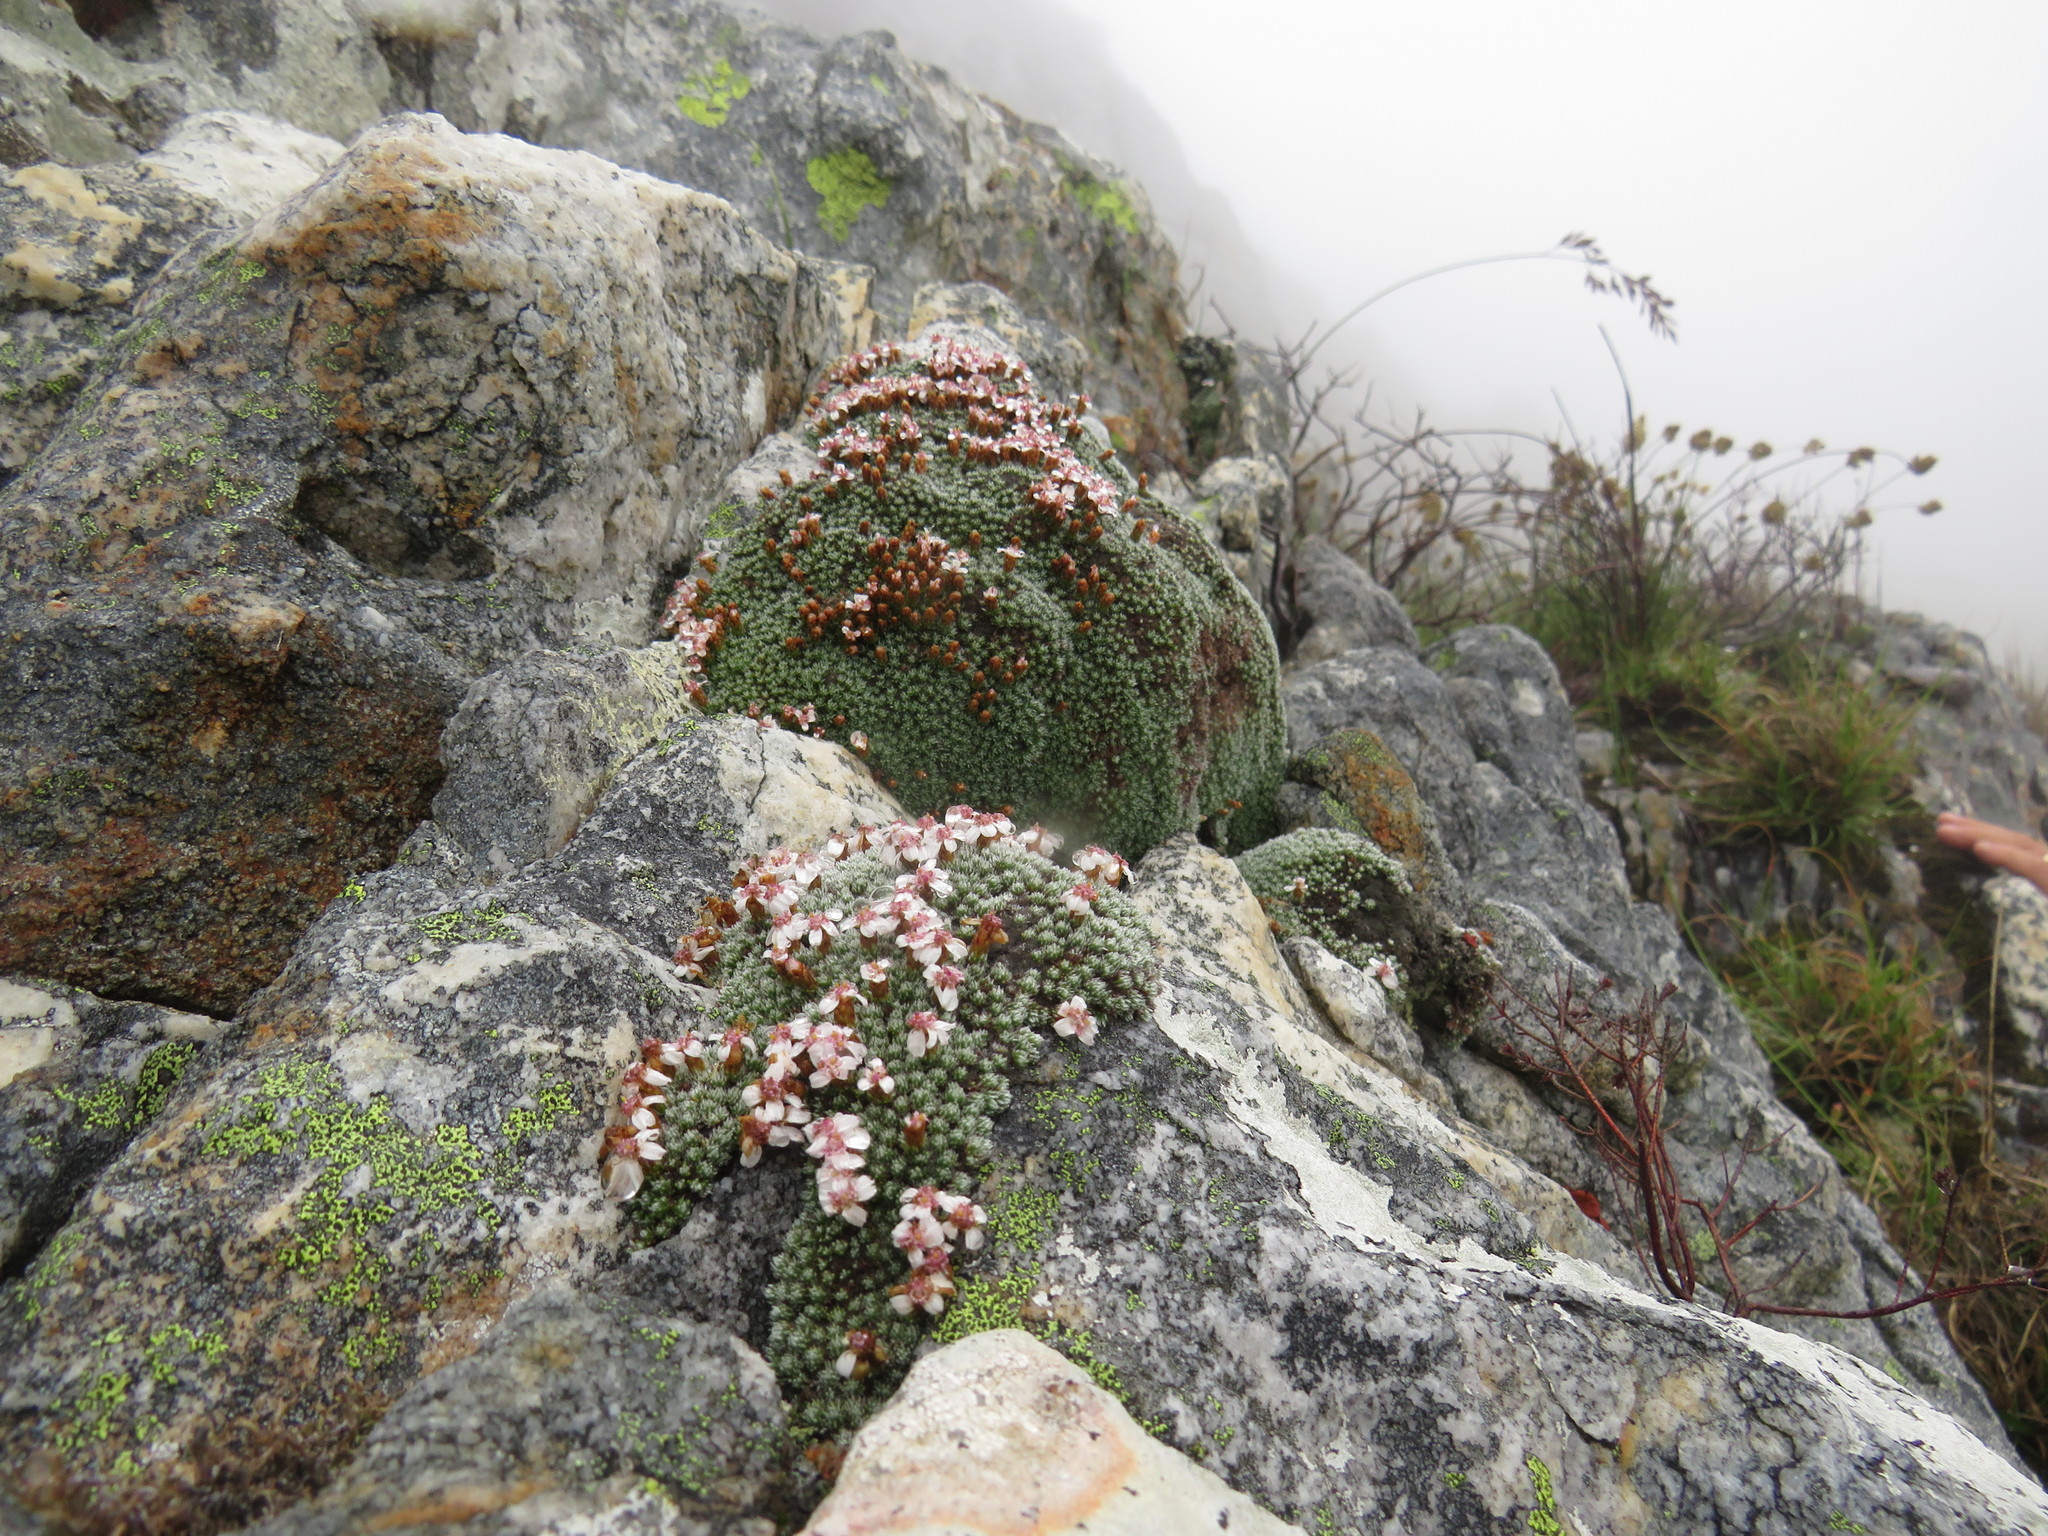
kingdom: Plantae
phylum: Tracheophyta
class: Magnoliopsida
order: Asterales
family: Asteraceae
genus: Muscosomorphe
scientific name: Muscosomorphe aretioides
